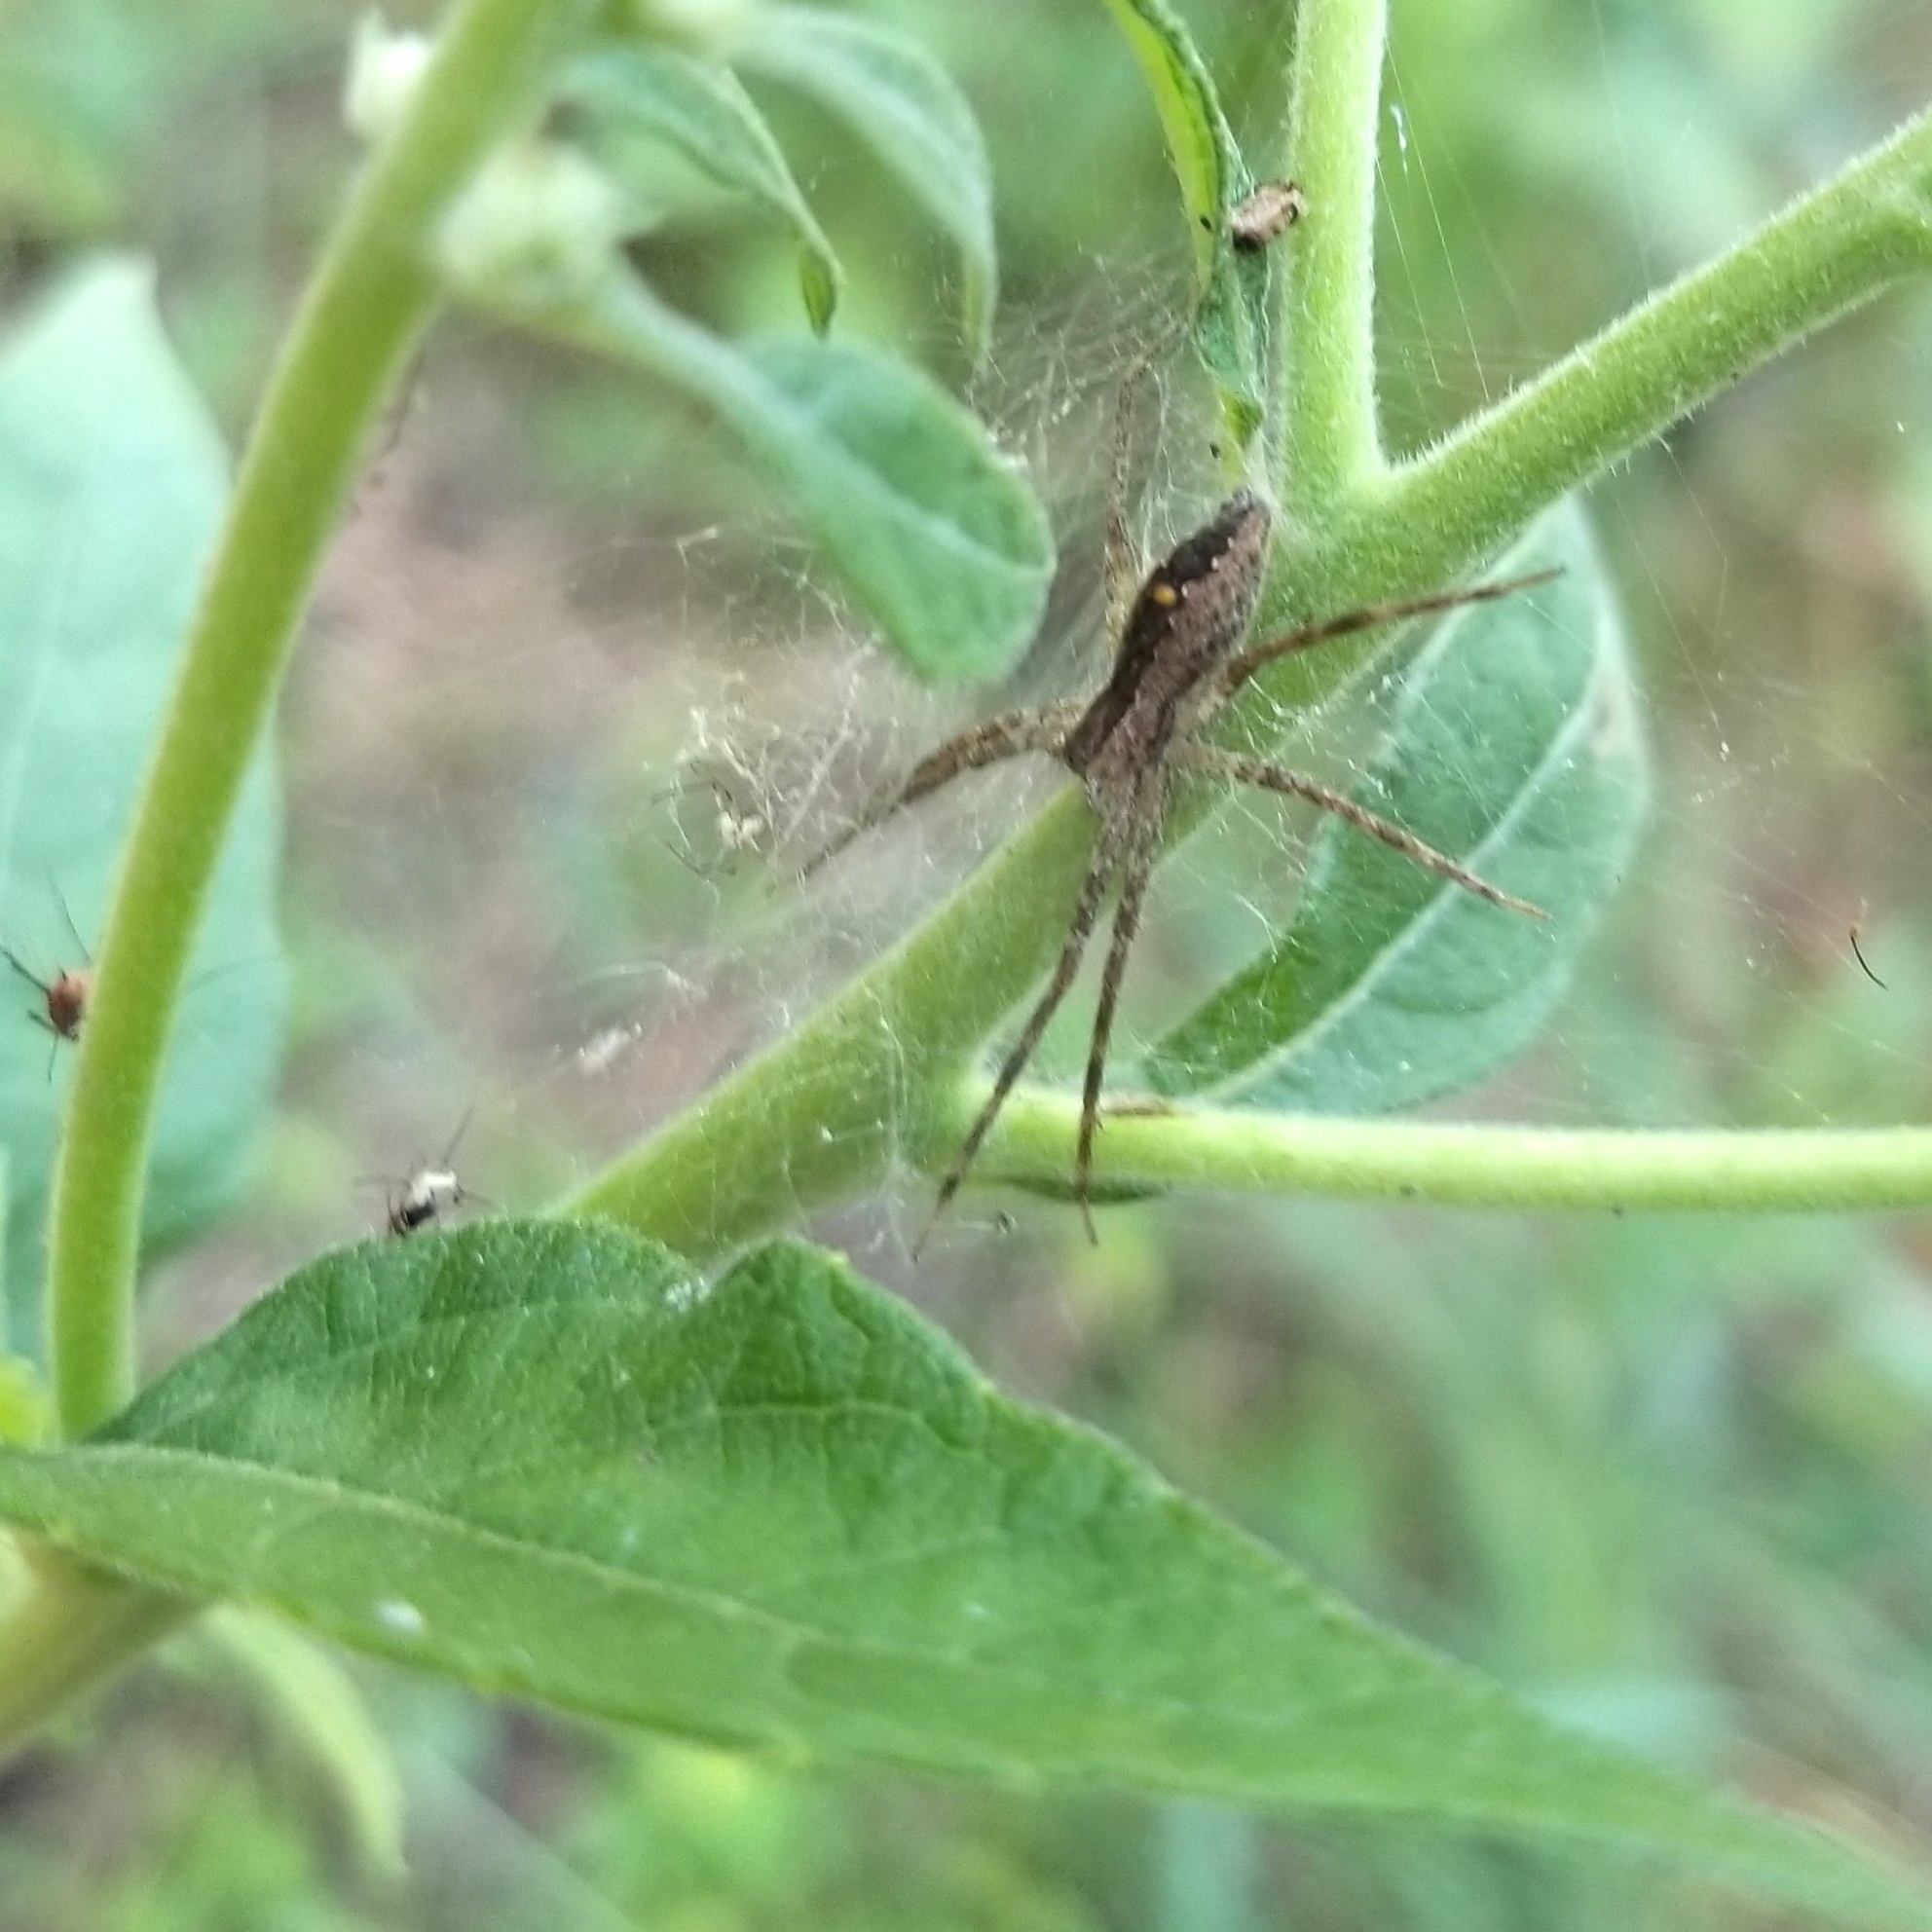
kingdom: Animalia
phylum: Arthropoda
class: Arachnida
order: Araneae
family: Pisauridae
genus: Pisaurina
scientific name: Pisaurina mira
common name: American nursery web spider
